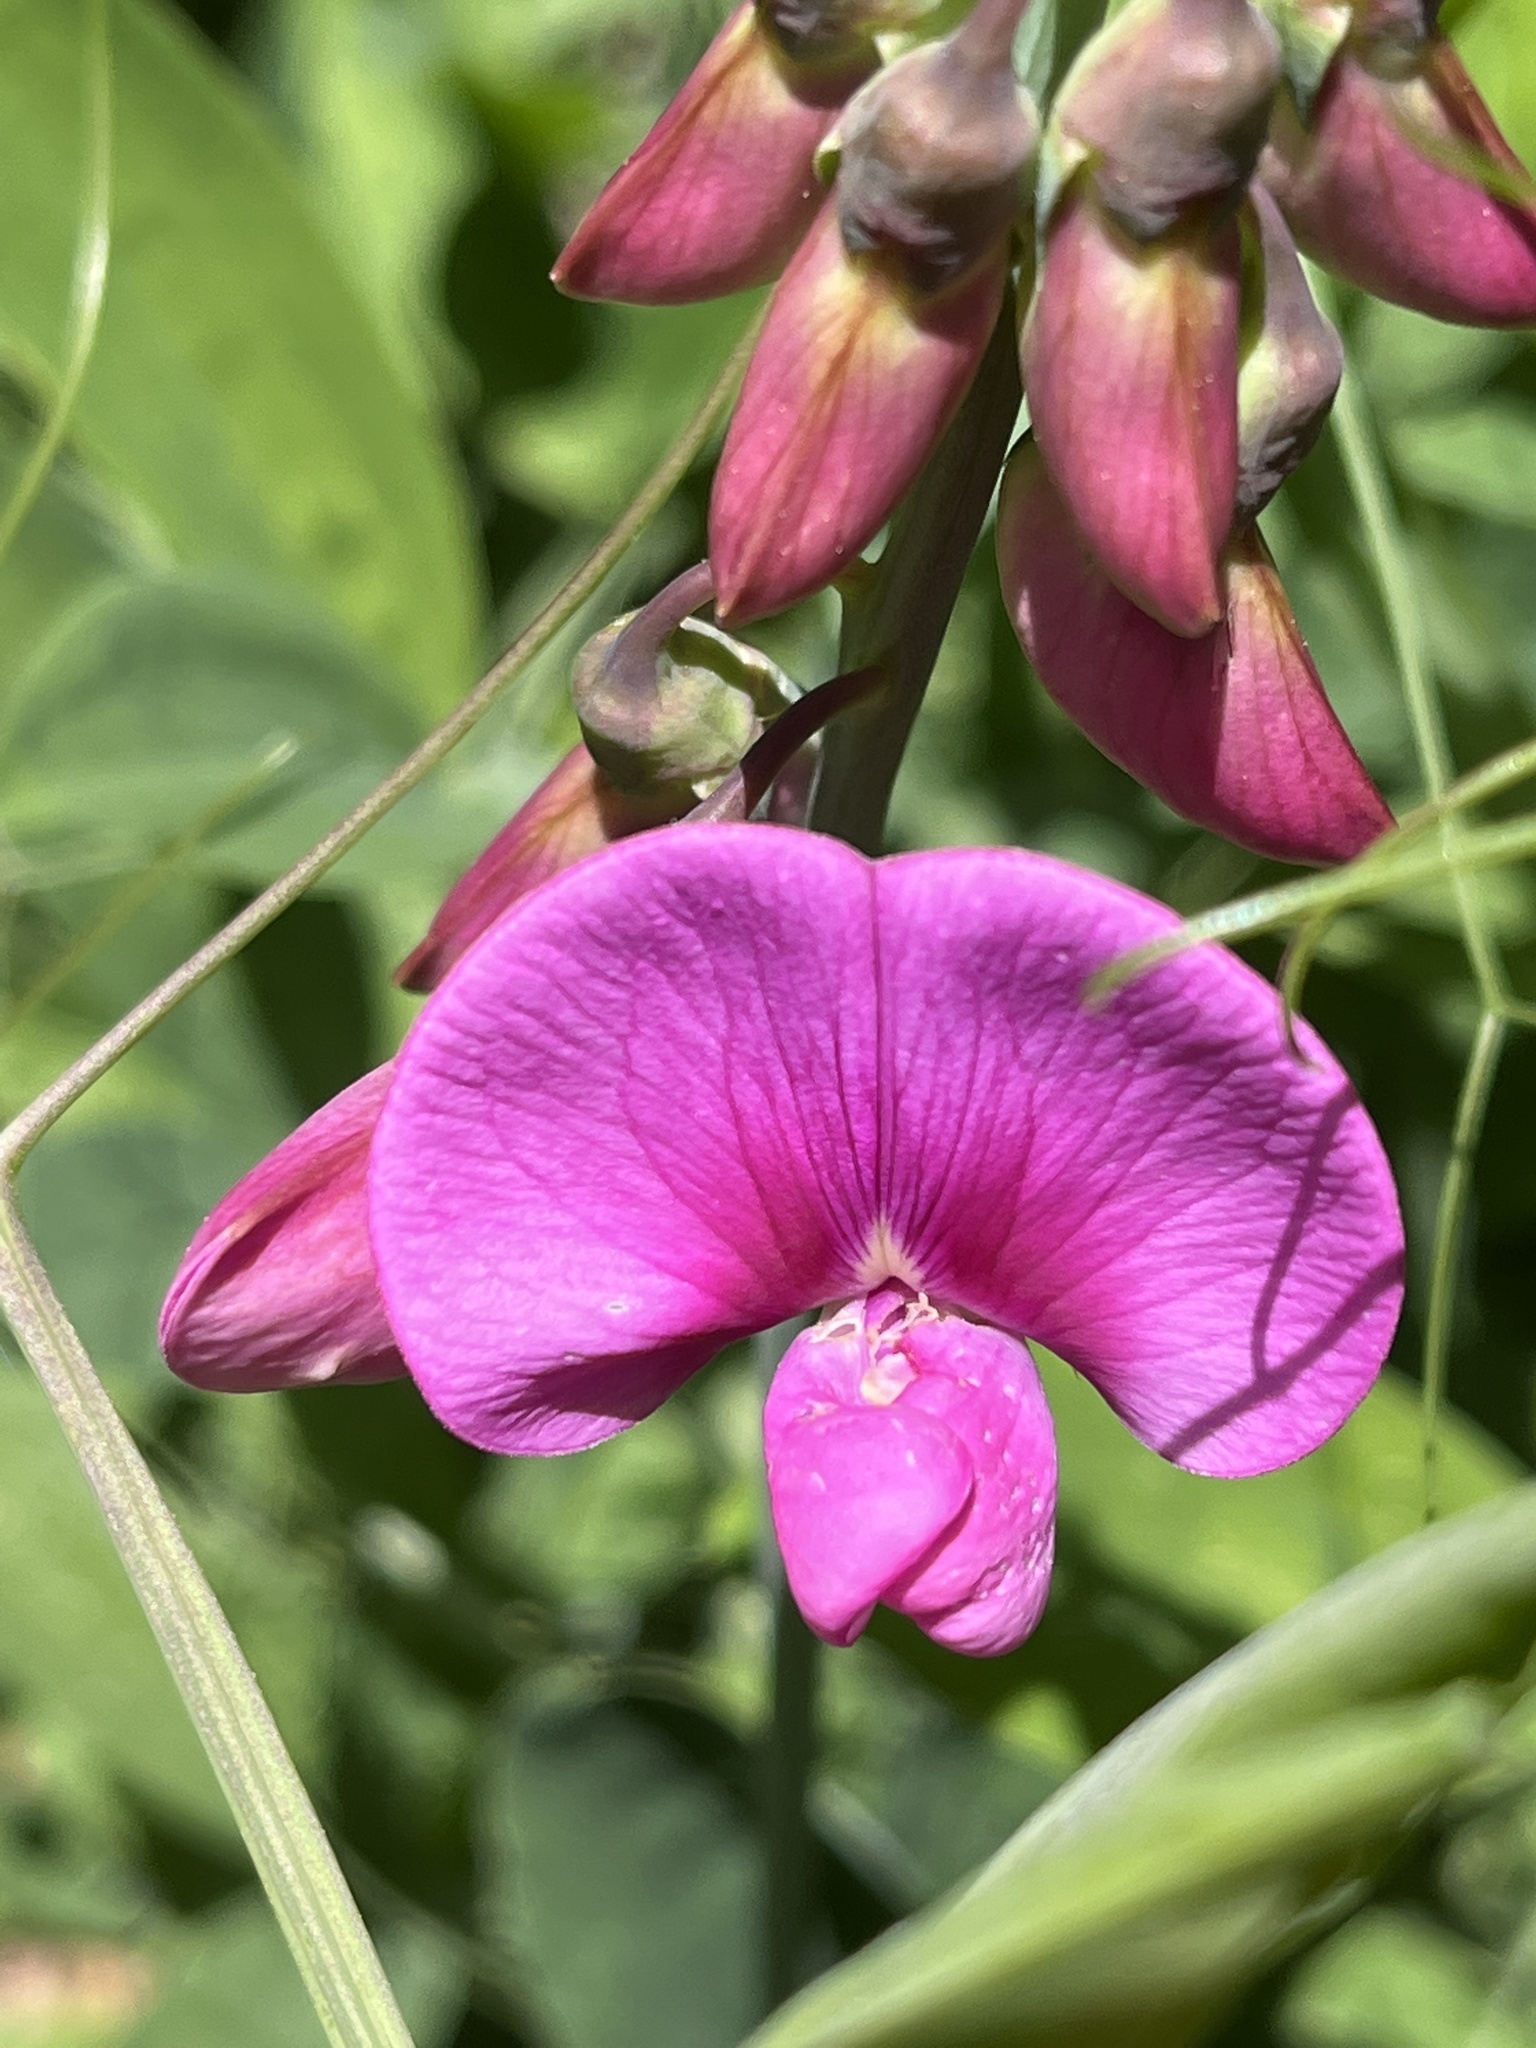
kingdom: Plantae
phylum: Tracheophyta
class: Magnoliopsida
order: Fabales
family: Fabaceae
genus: Lathyrus
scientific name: Lathyrus latifolius
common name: Perennial pea
